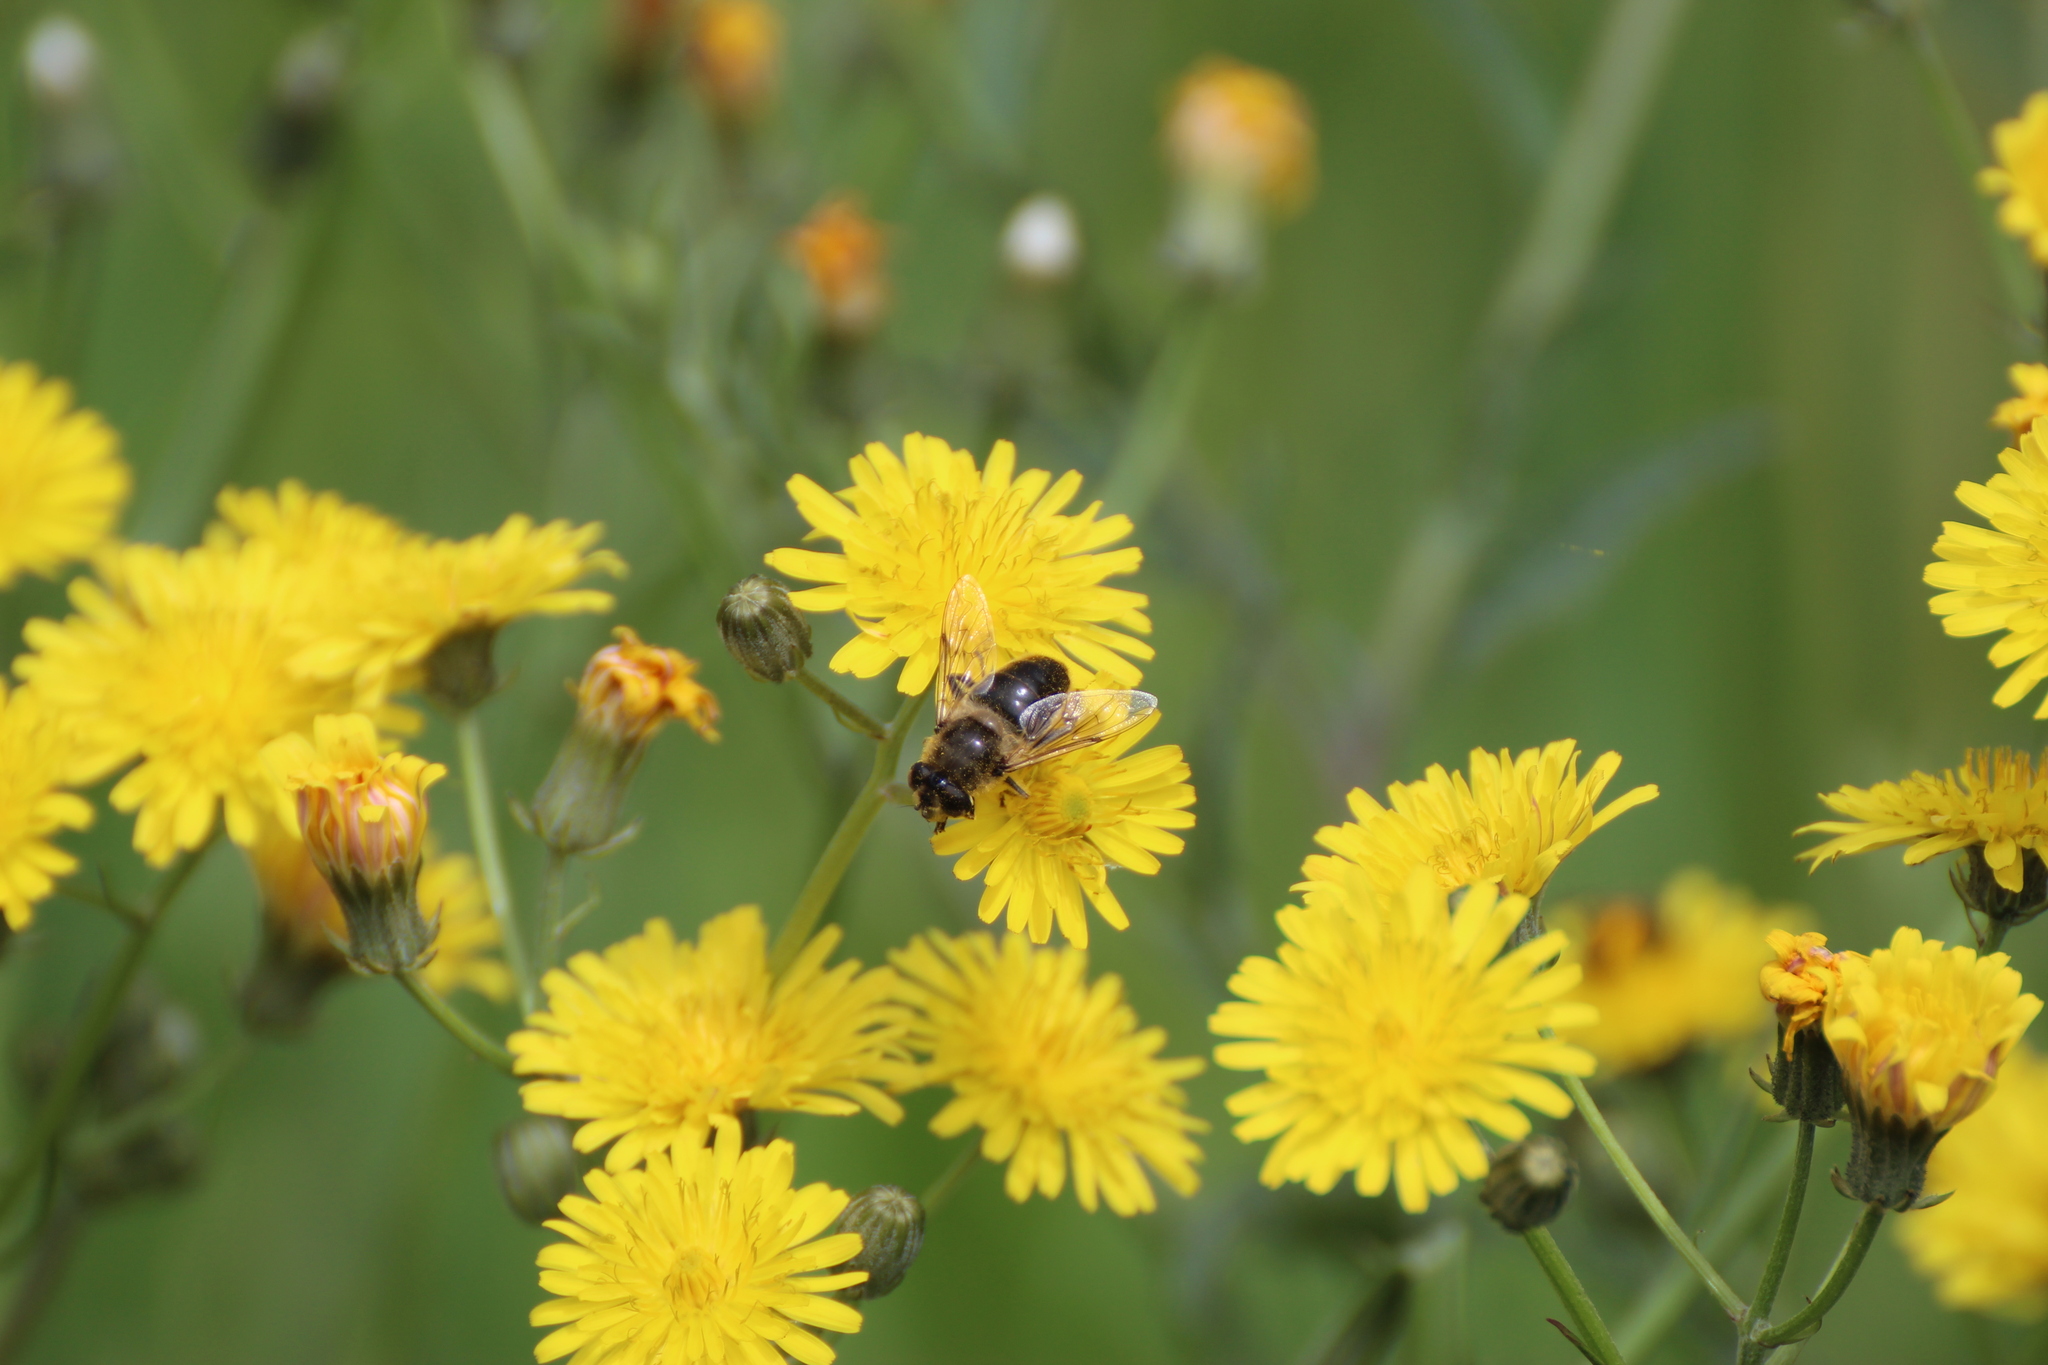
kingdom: Animalia
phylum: Arthropoda
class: Insecta
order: Diptera
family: Syrphidae
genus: Eristalis
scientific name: Eristalis tenax
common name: Drone fly
